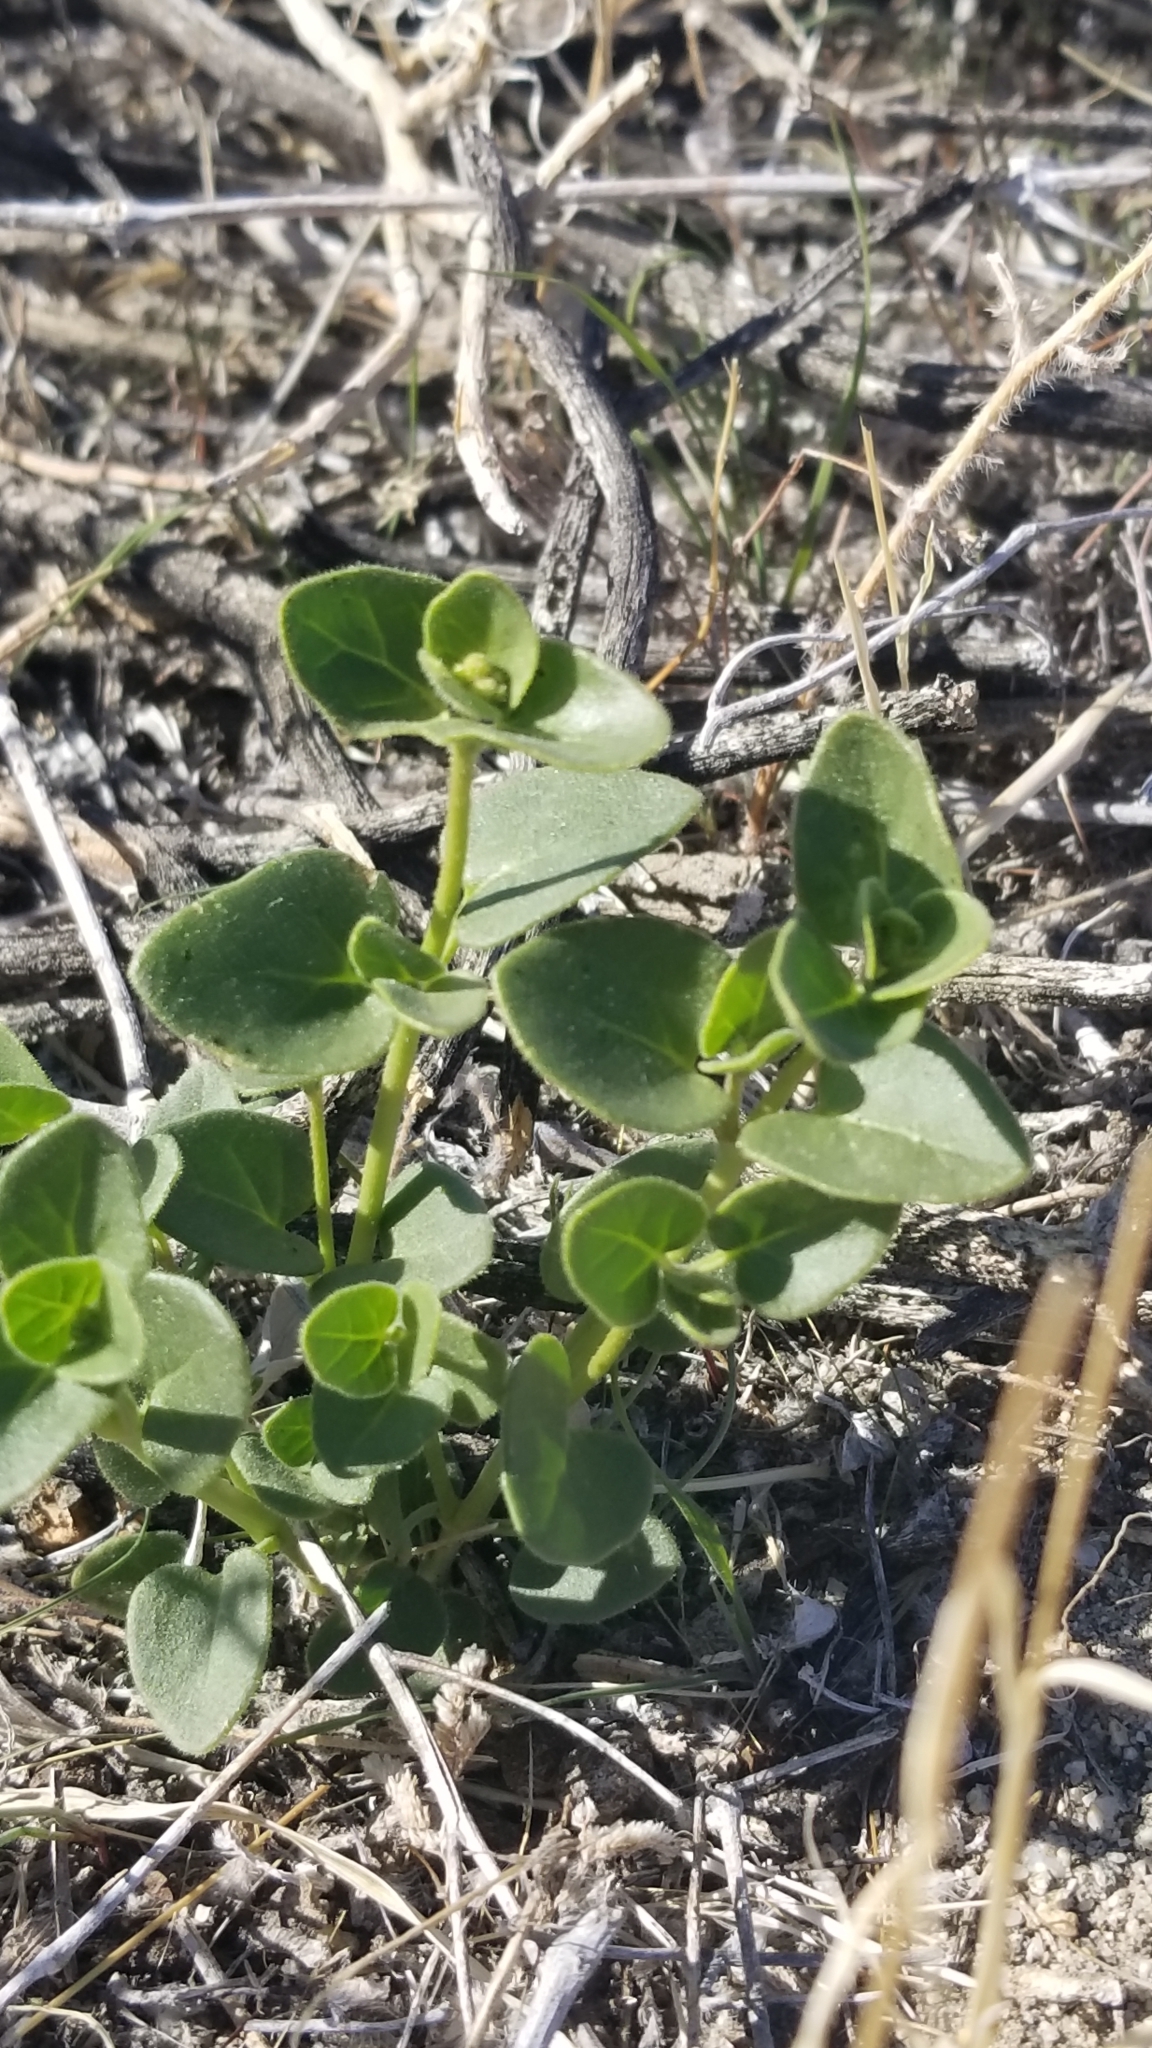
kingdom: Plantae
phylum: Tracheophyta
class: Magnoliopsida
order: Caryophyllales
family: Nyctaginaceae
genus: Mirabilis
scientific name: Mirabilis laevis
